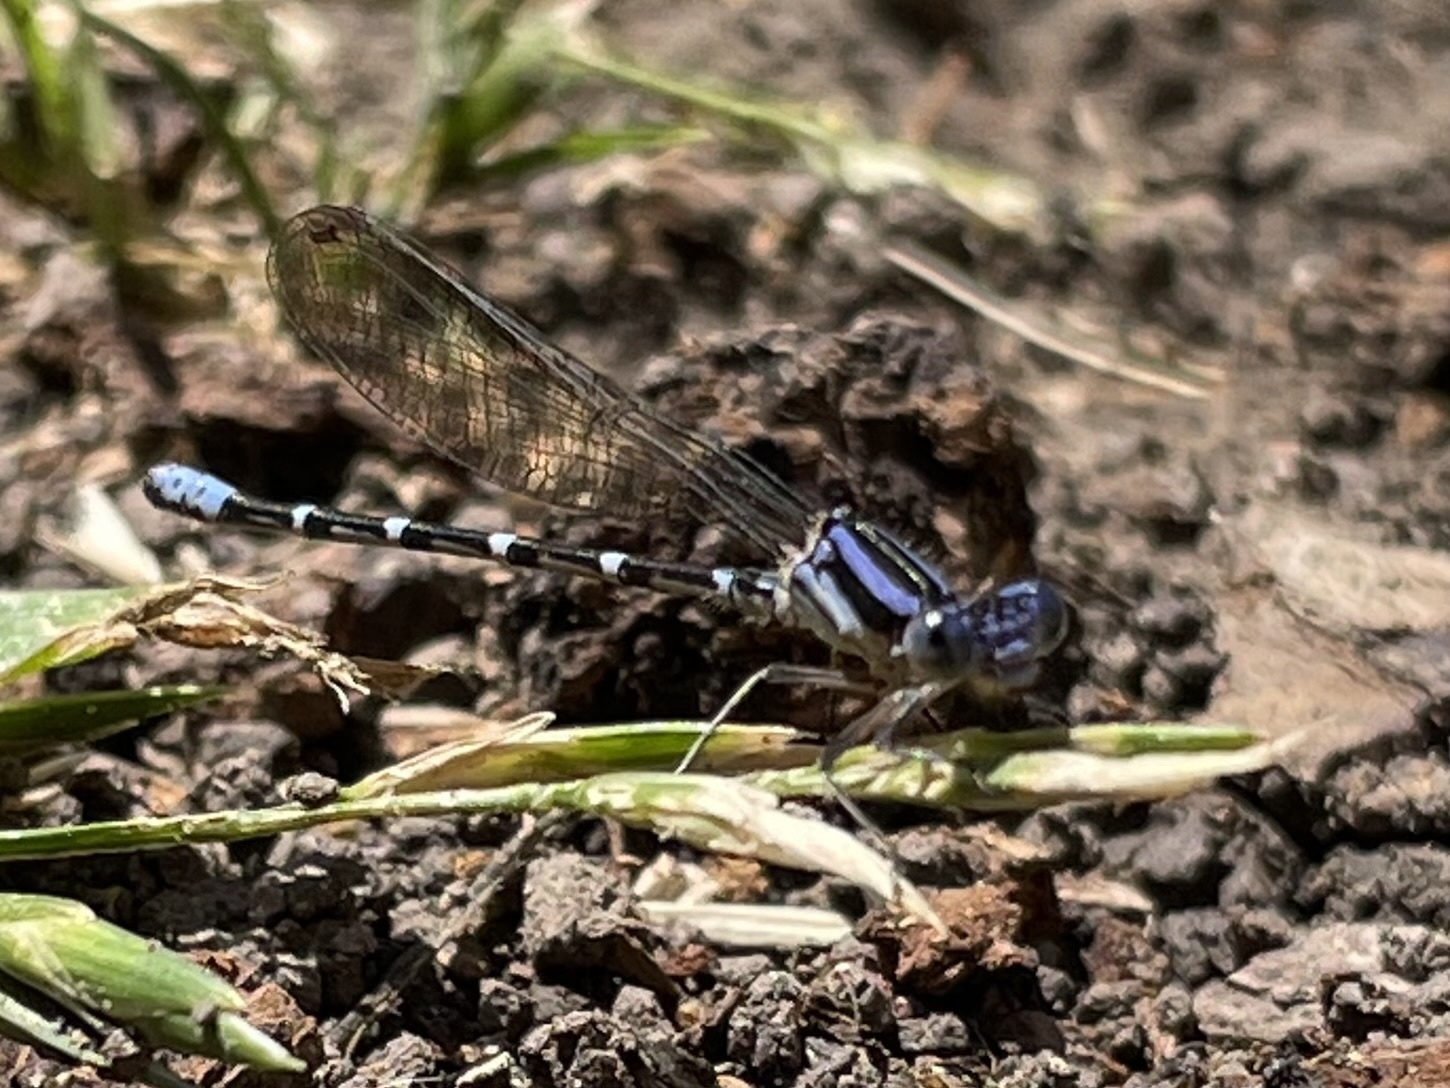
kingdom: Animalia
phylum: Arthropoda
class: Insecta
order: Odonata
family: Coenagrionidae
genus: Argia
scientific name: Argia sedula
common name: Blue-ringed dancer
